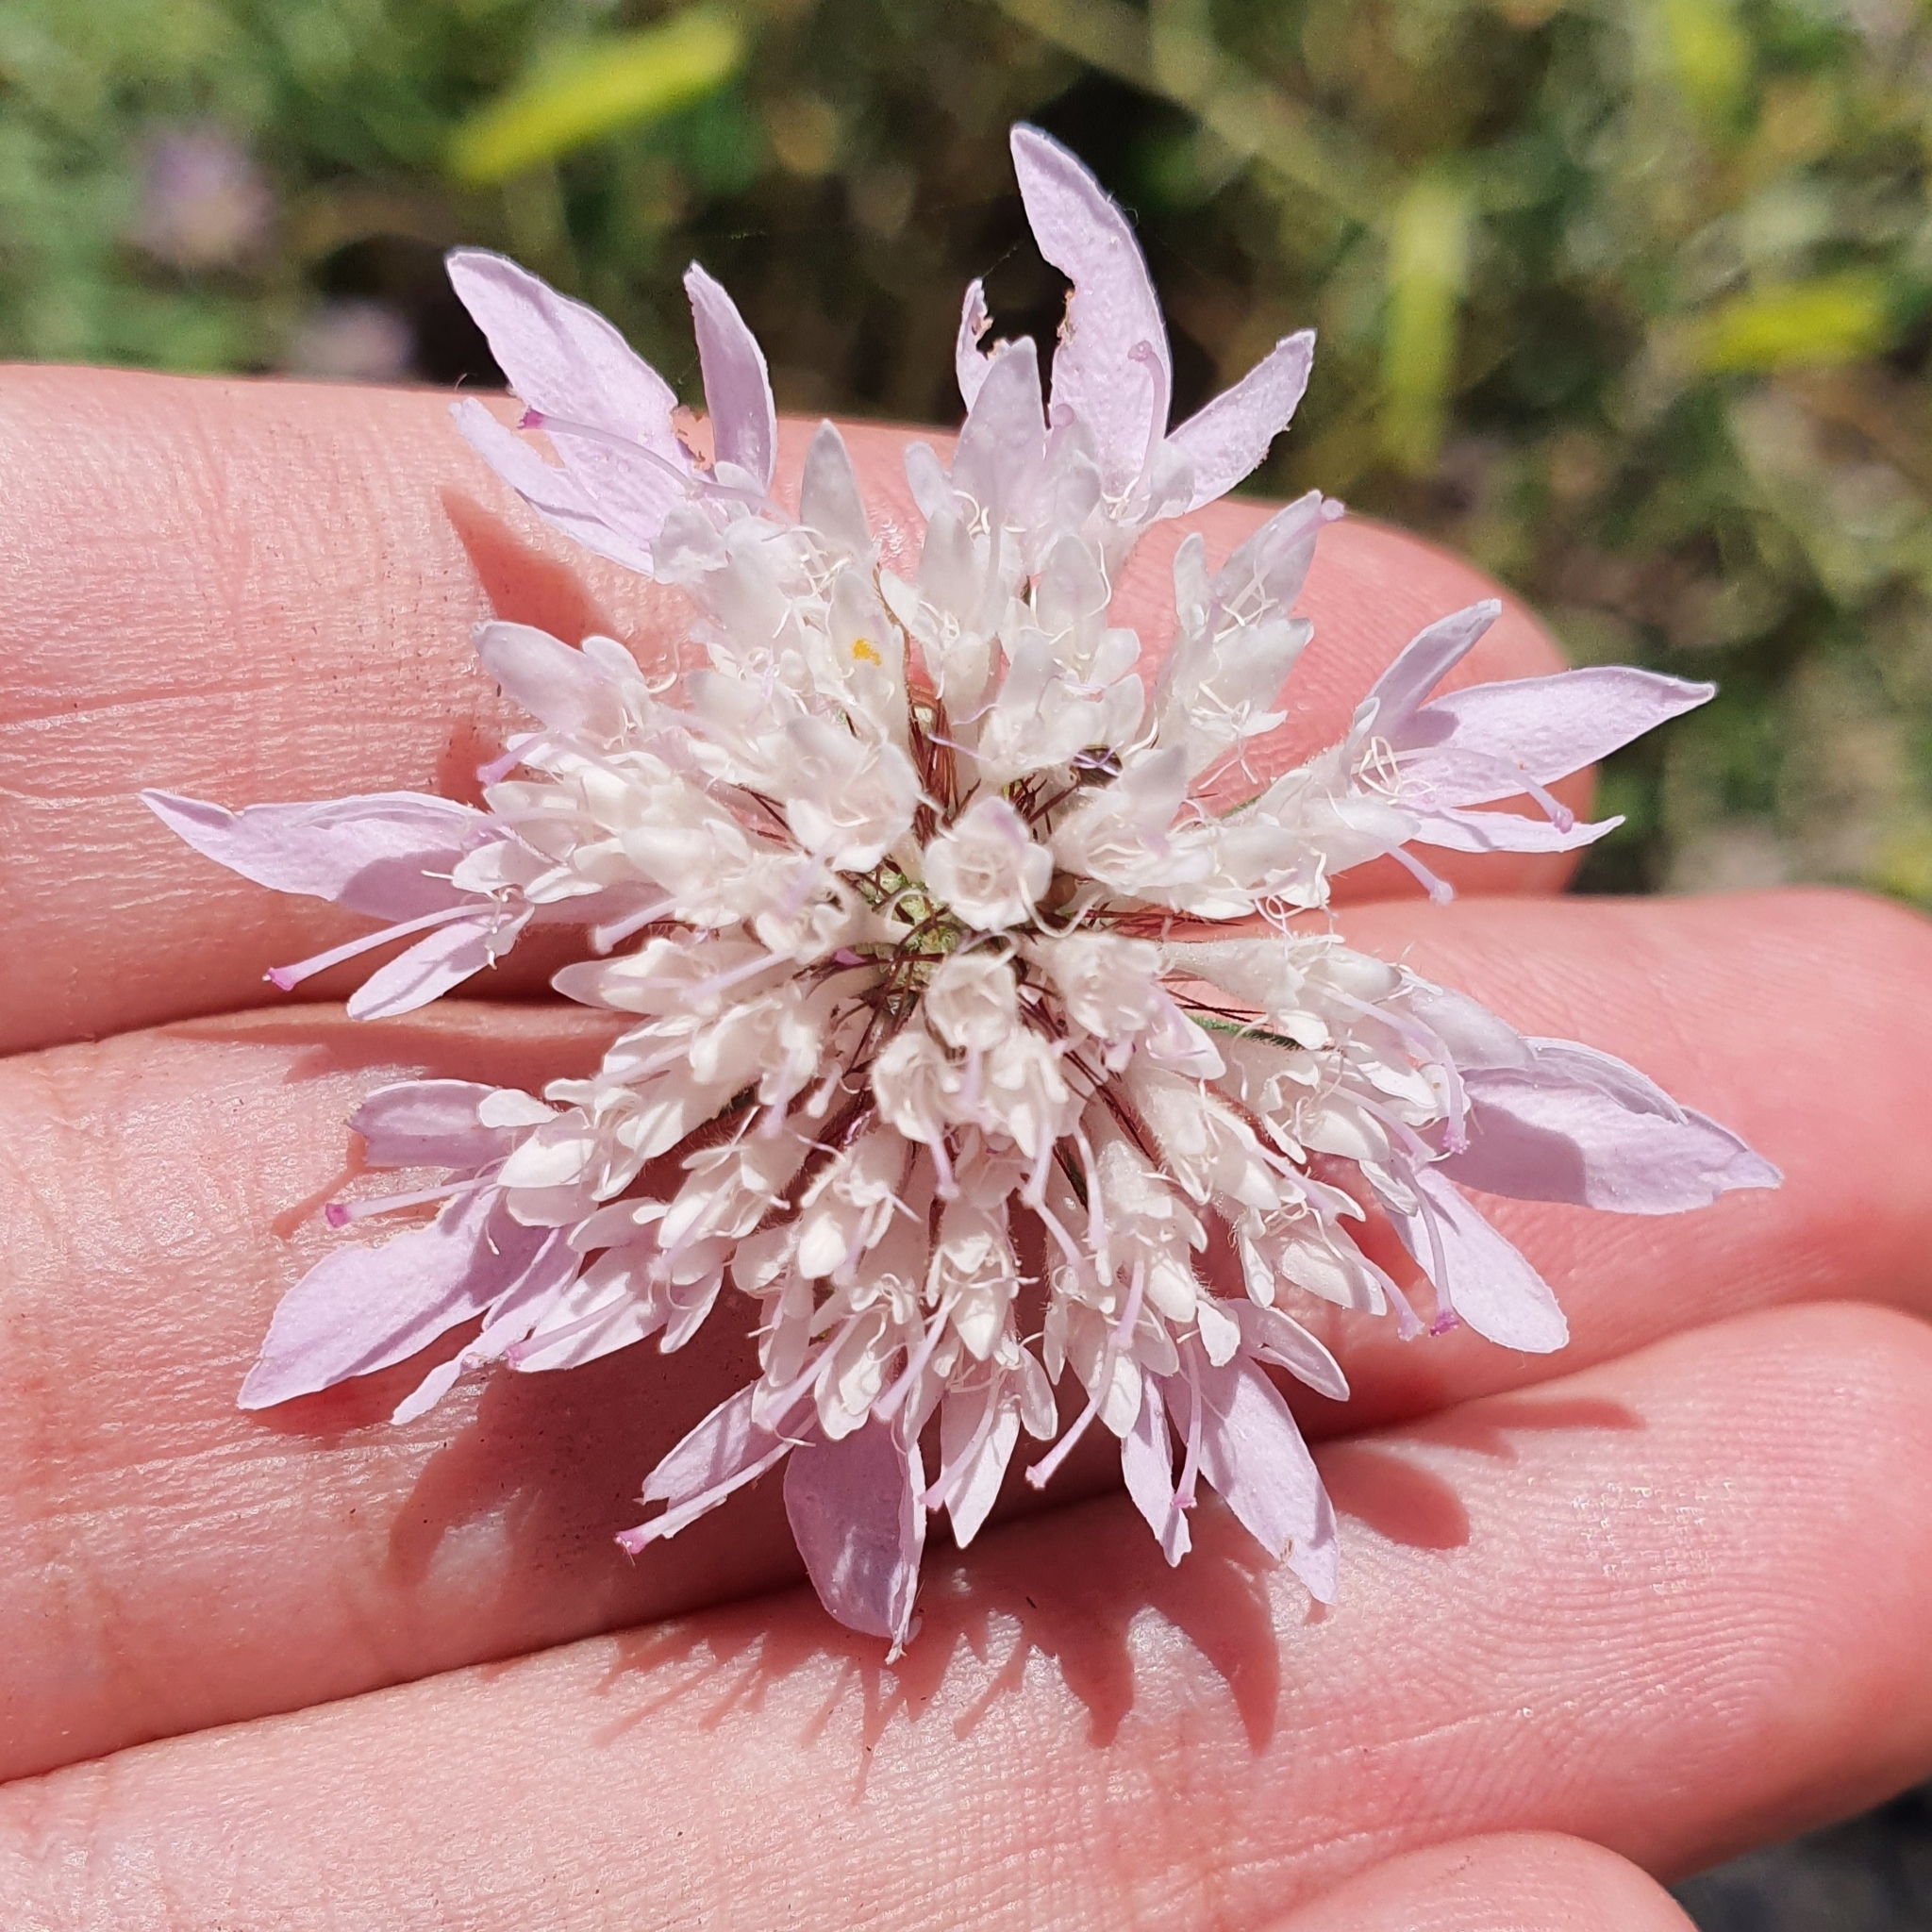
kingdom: Plantae
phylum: Tracheophyta
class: Magnoliopsida
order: Dipsacales
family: Caprifoliaceae
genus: Sixalix
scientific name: Sixalix maritima
